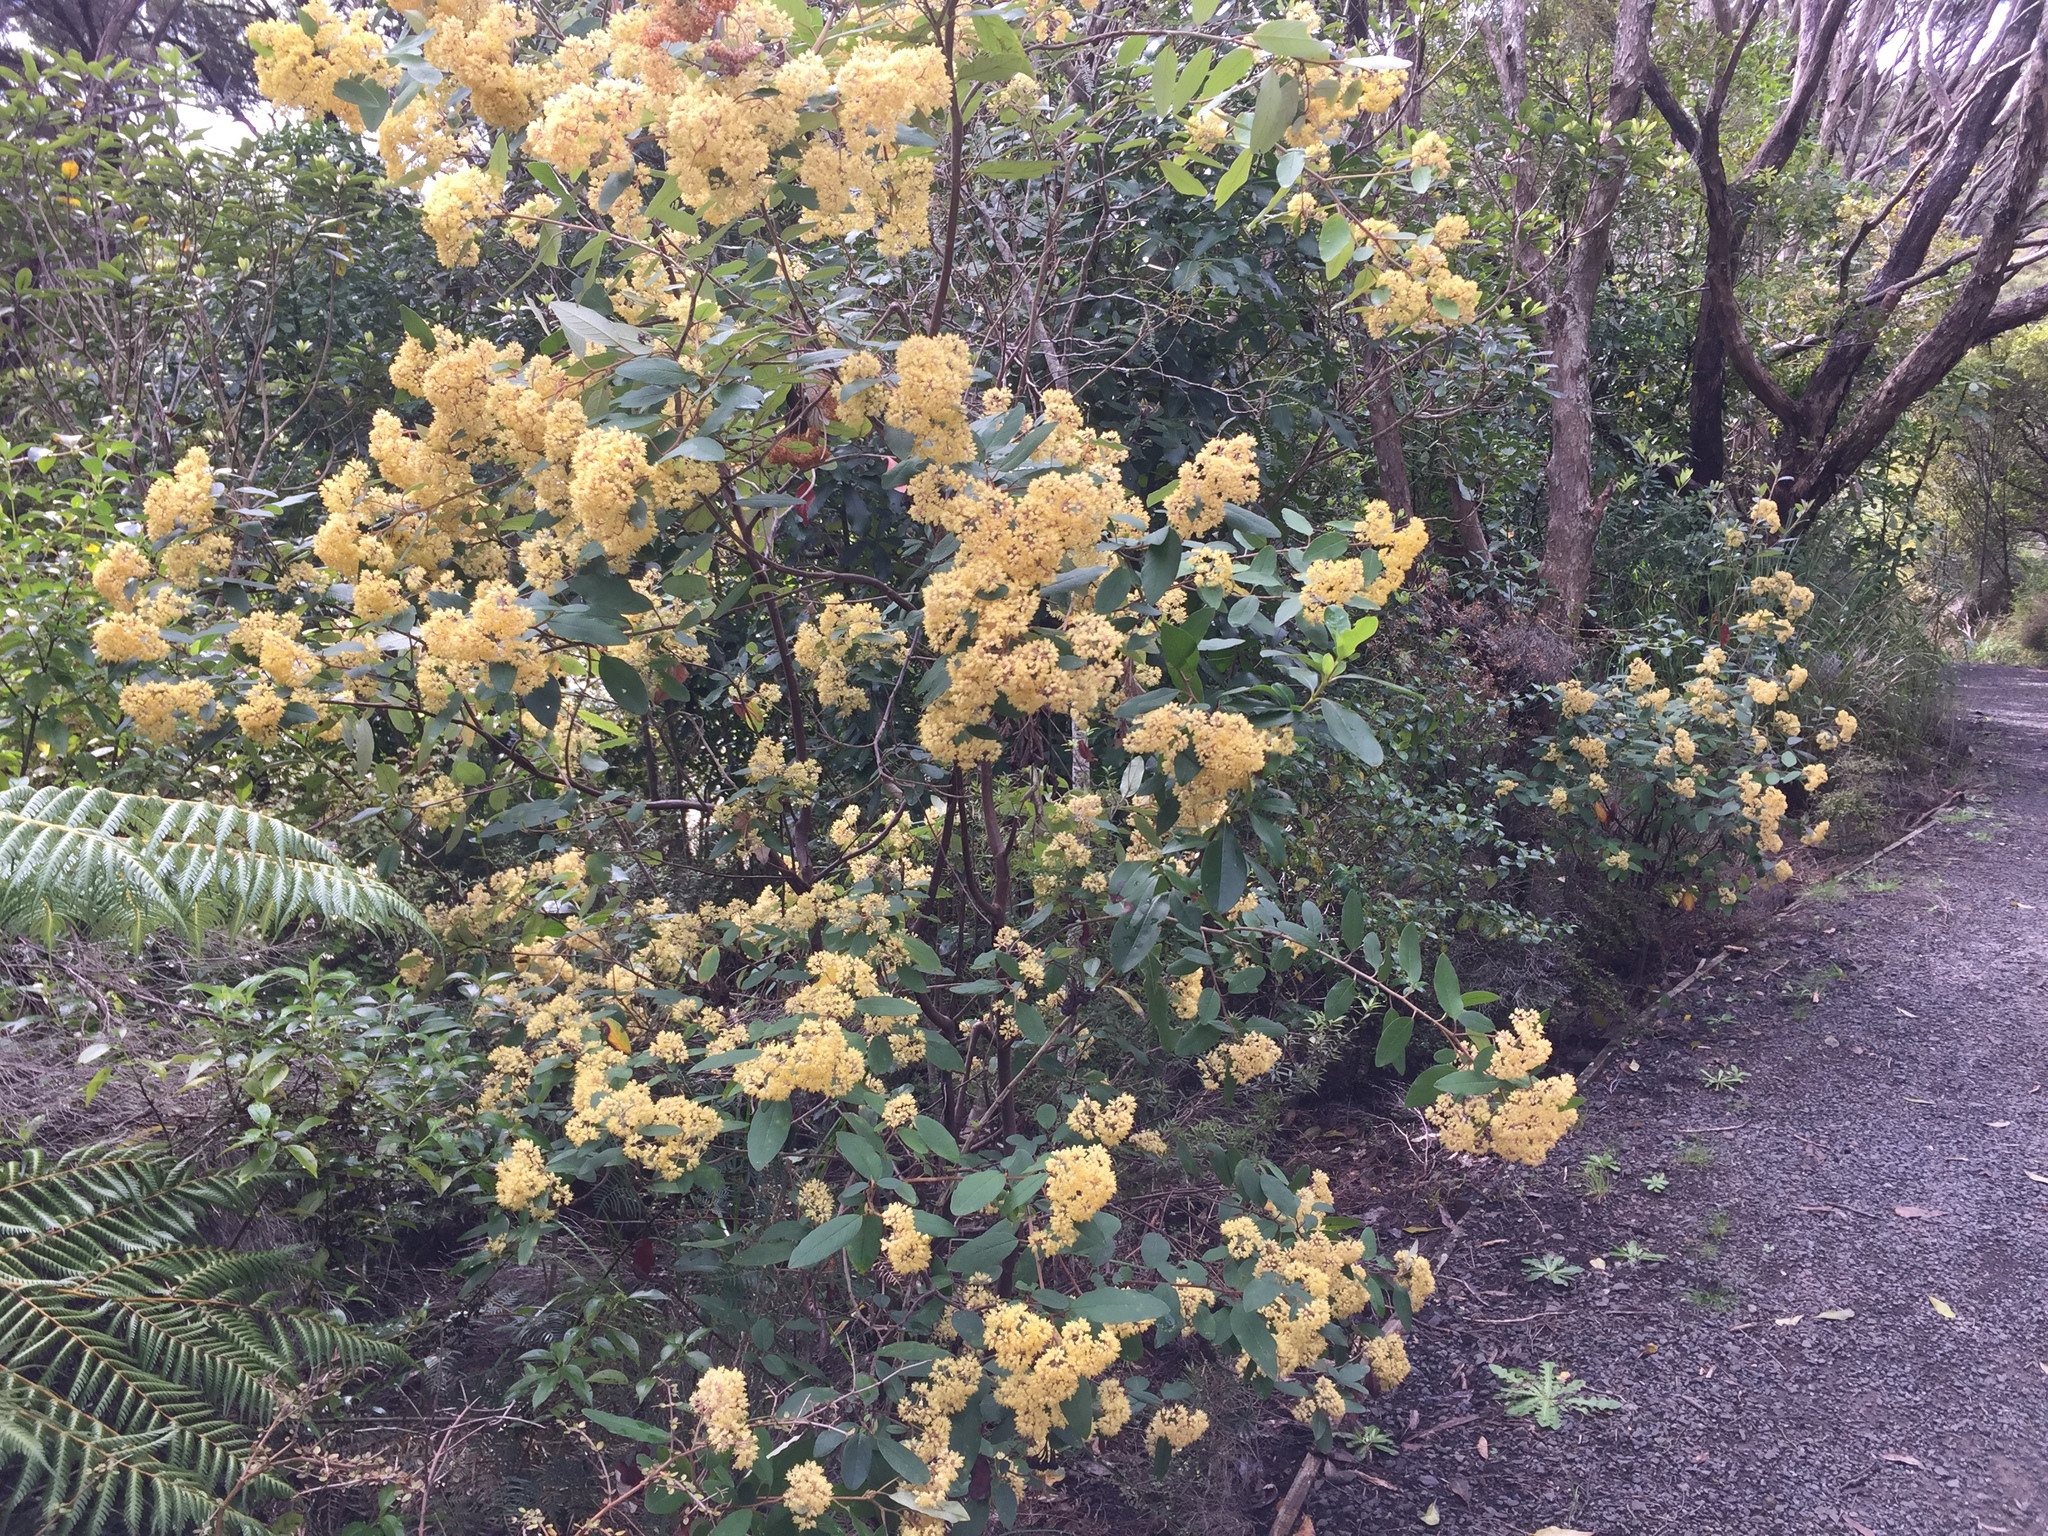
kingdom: Plantae
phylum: Tracheophyta
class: Magnoliopsida
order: Rosales
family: Rhamnaceae
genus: Pomaderris
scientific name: Pomaderris kumeraho
